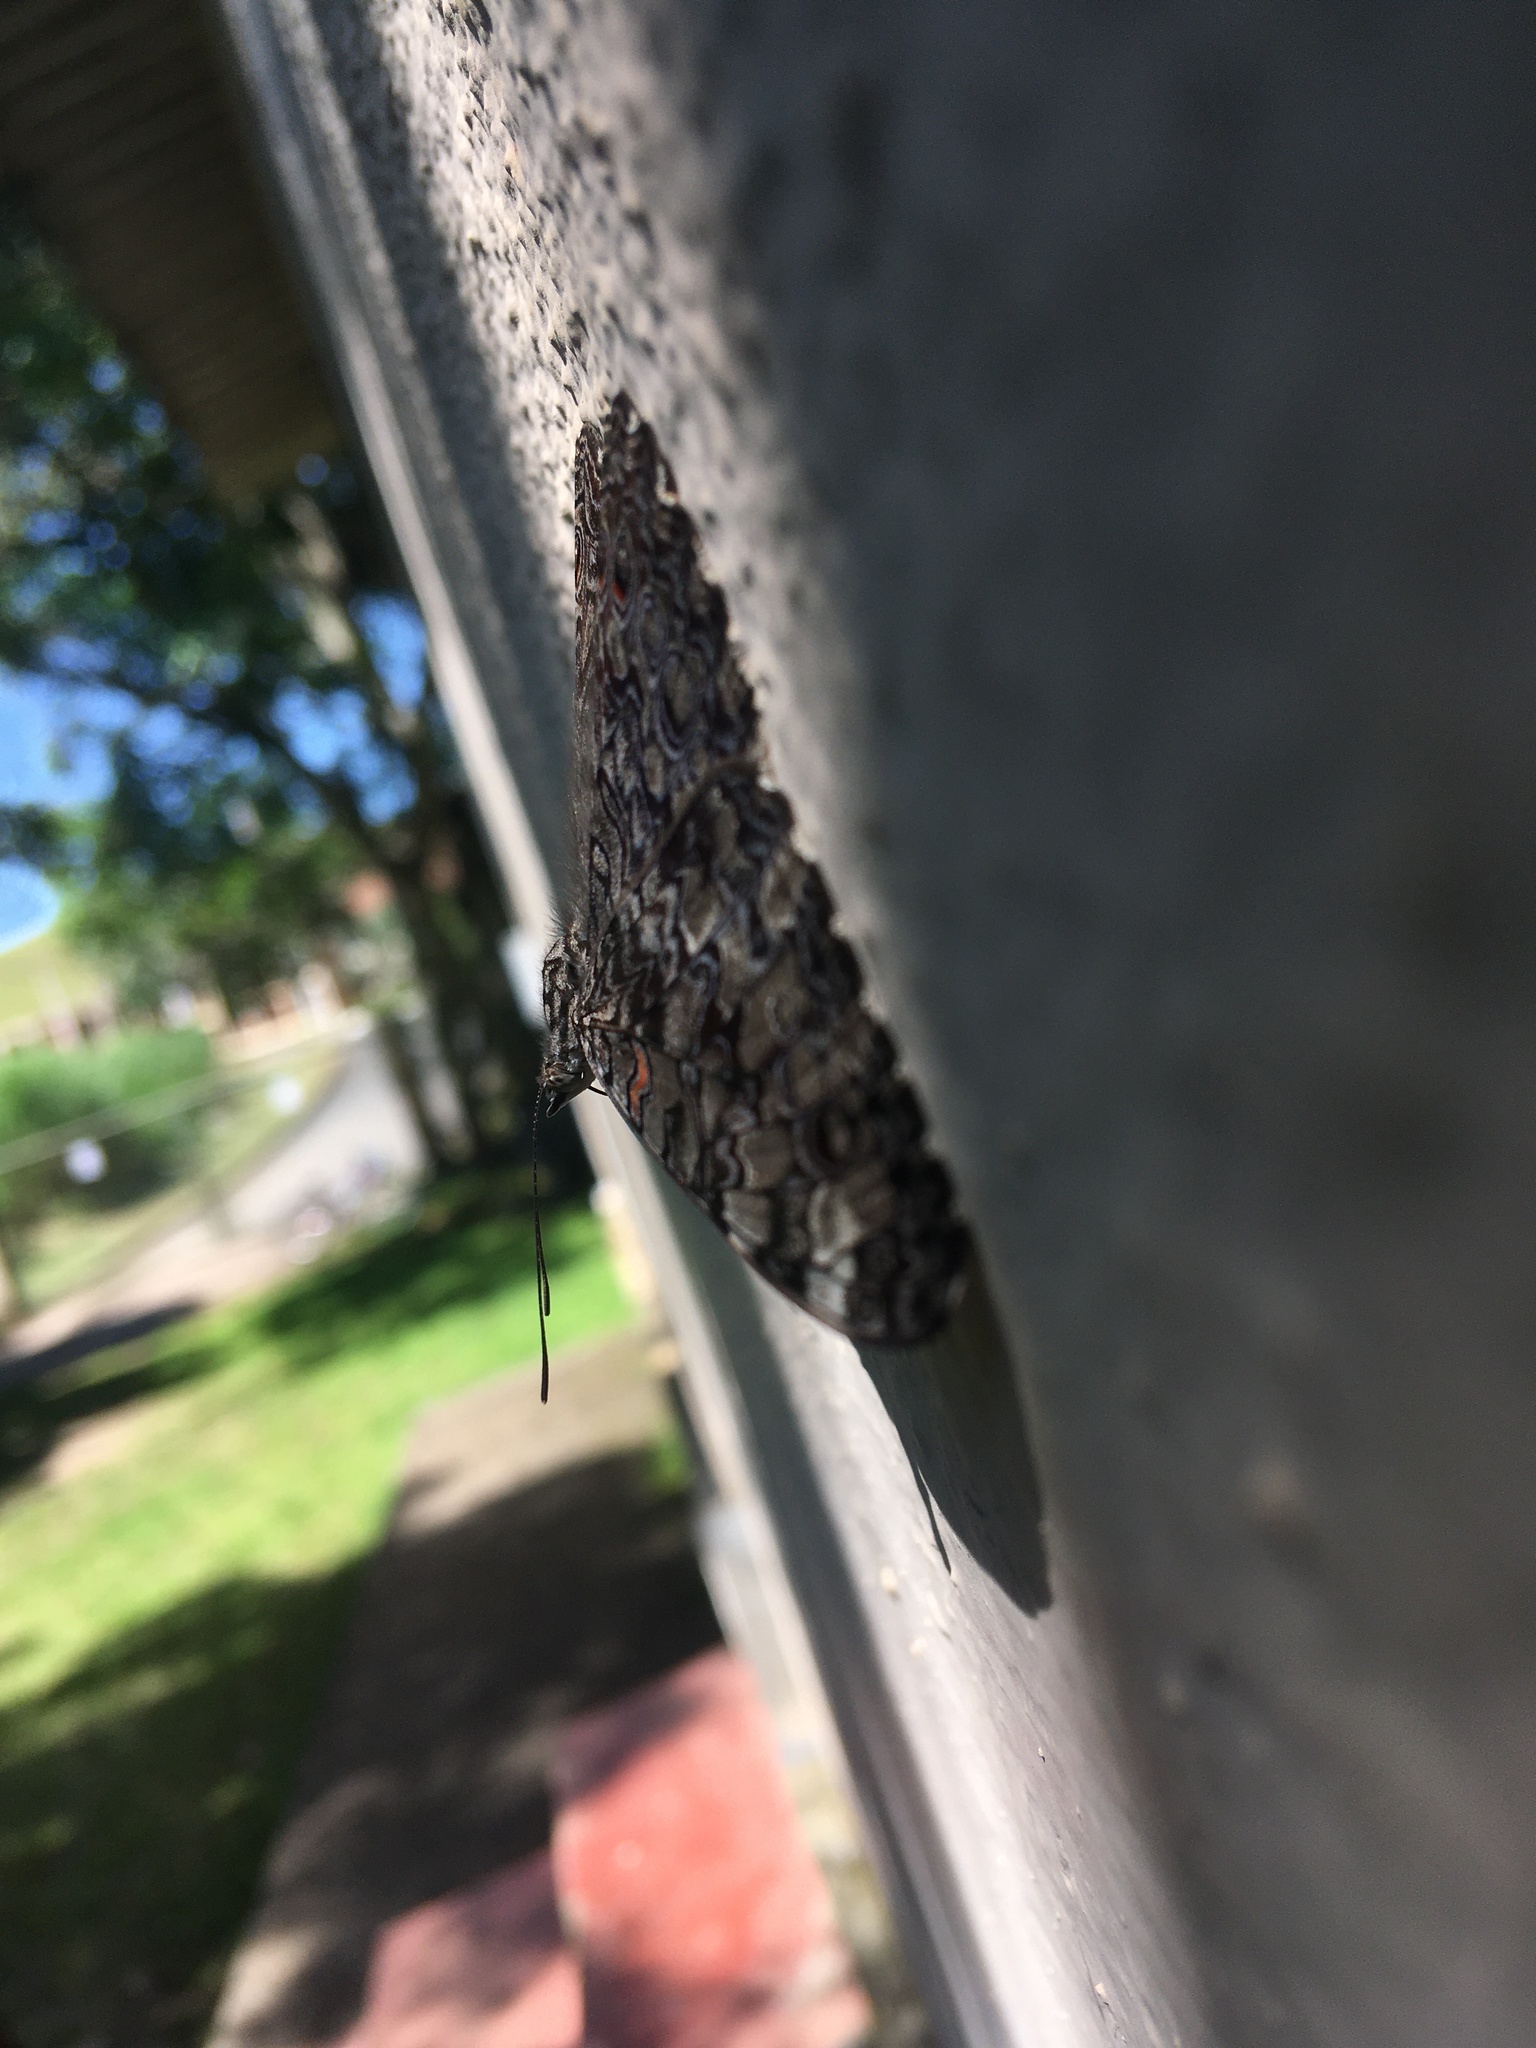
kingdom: Animalia
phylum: Arthropoda
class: Insecta
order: Lepidoptera
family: Nymphalidae
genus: Hamadryas
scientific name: Hamadryas februa
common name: Gray cracker
